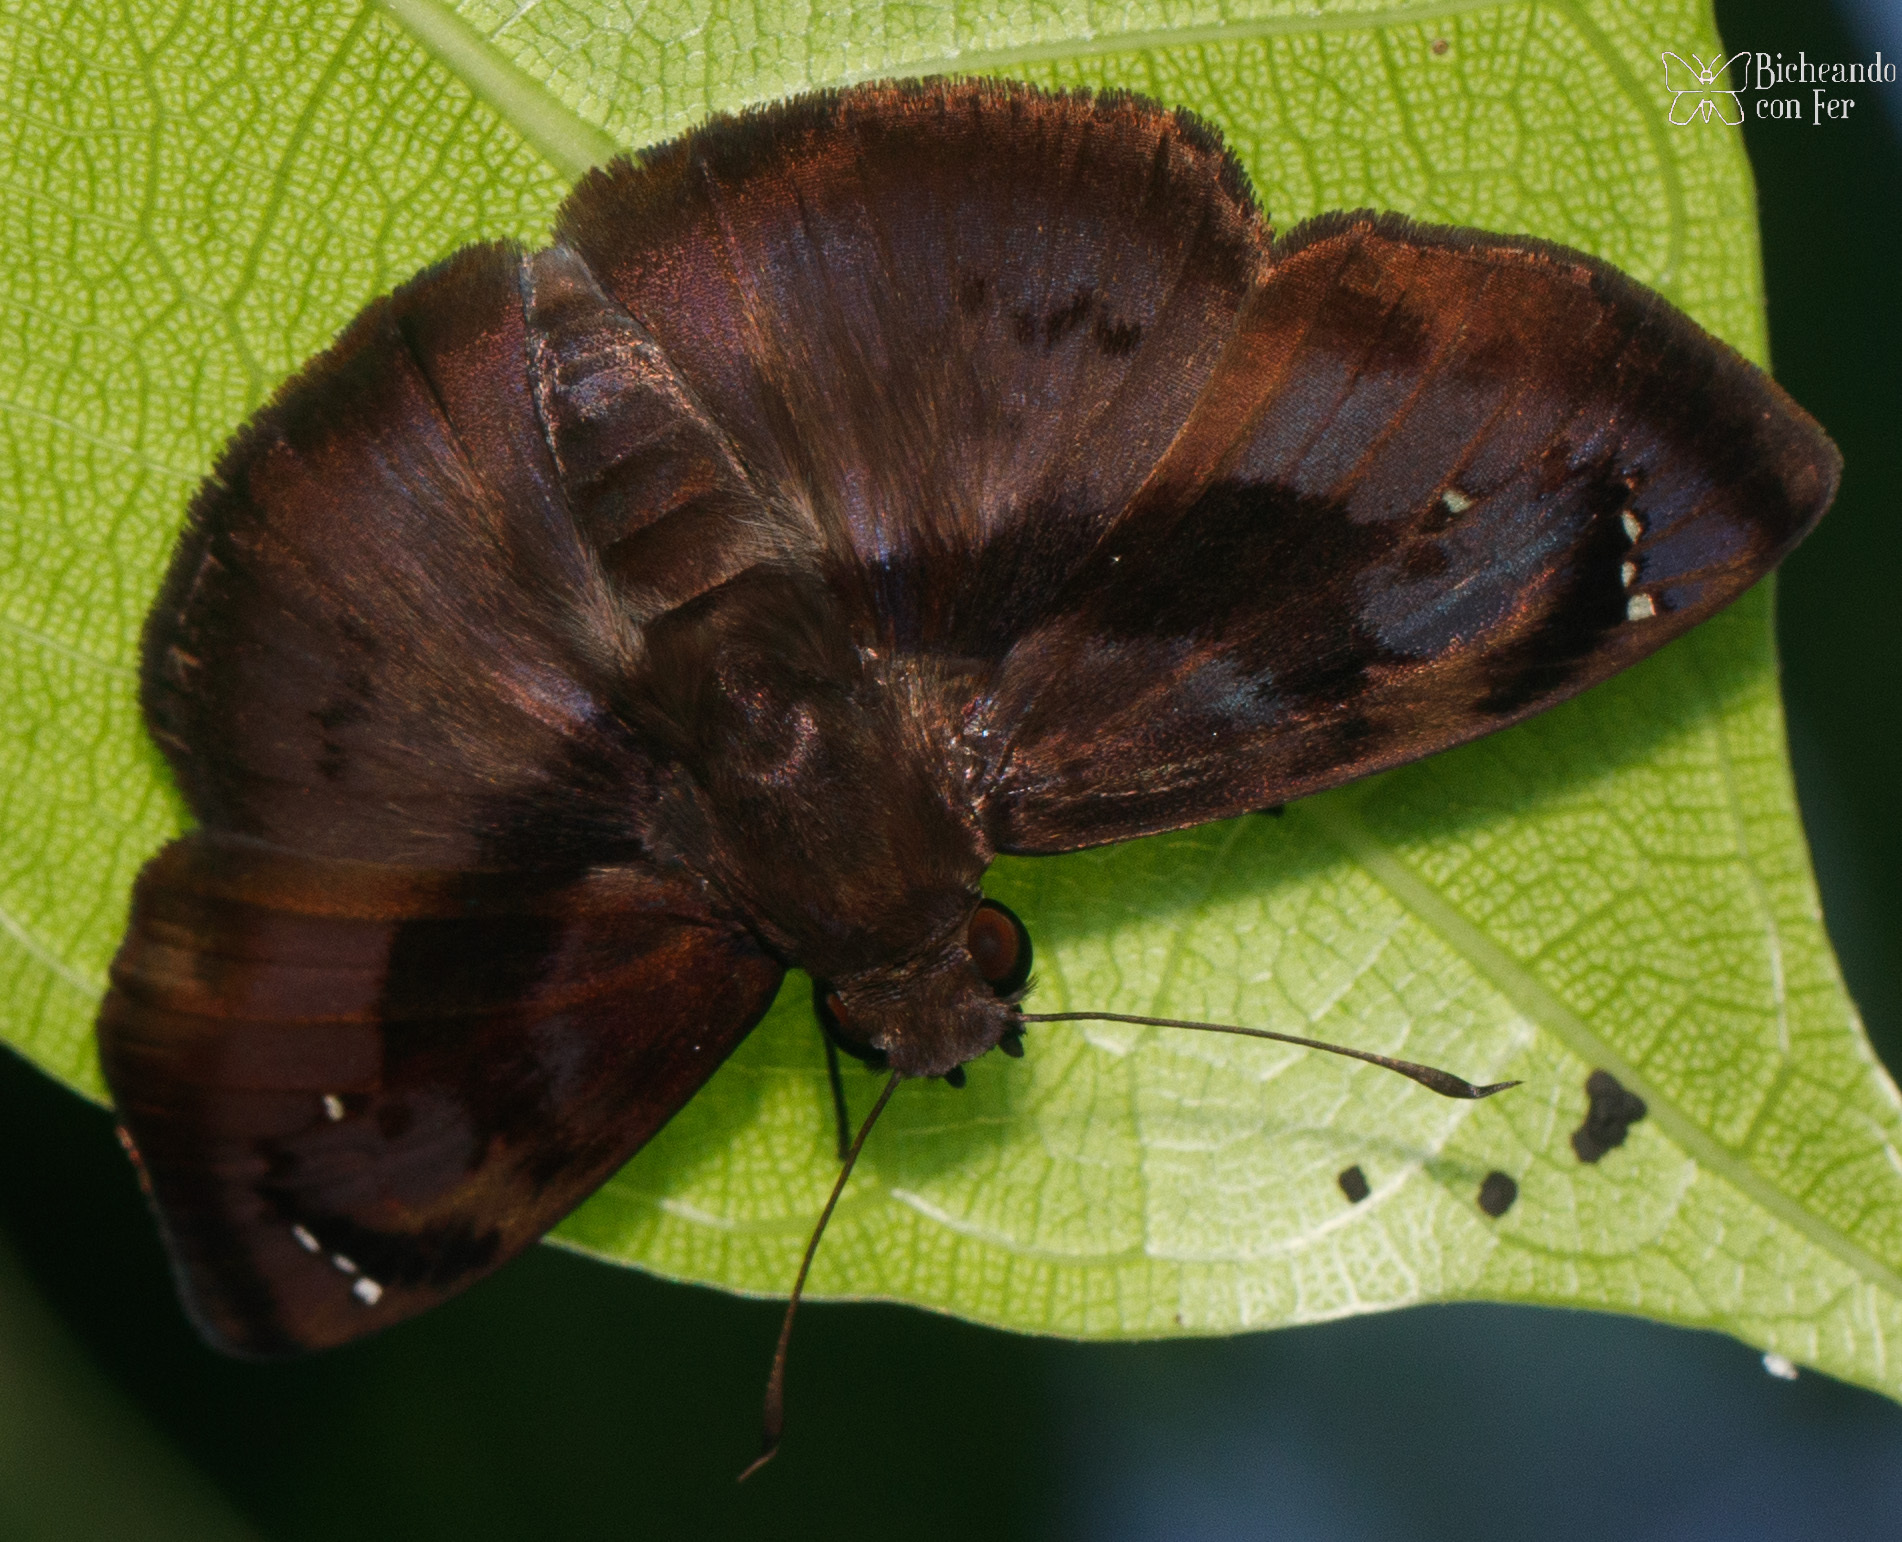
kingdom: Animalia
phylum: Arthropoda
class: Insecta
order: Lepidoptera
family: Hesperiidae
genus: Zera
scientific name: Zera hyacinthinus
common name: Bruised skipper
